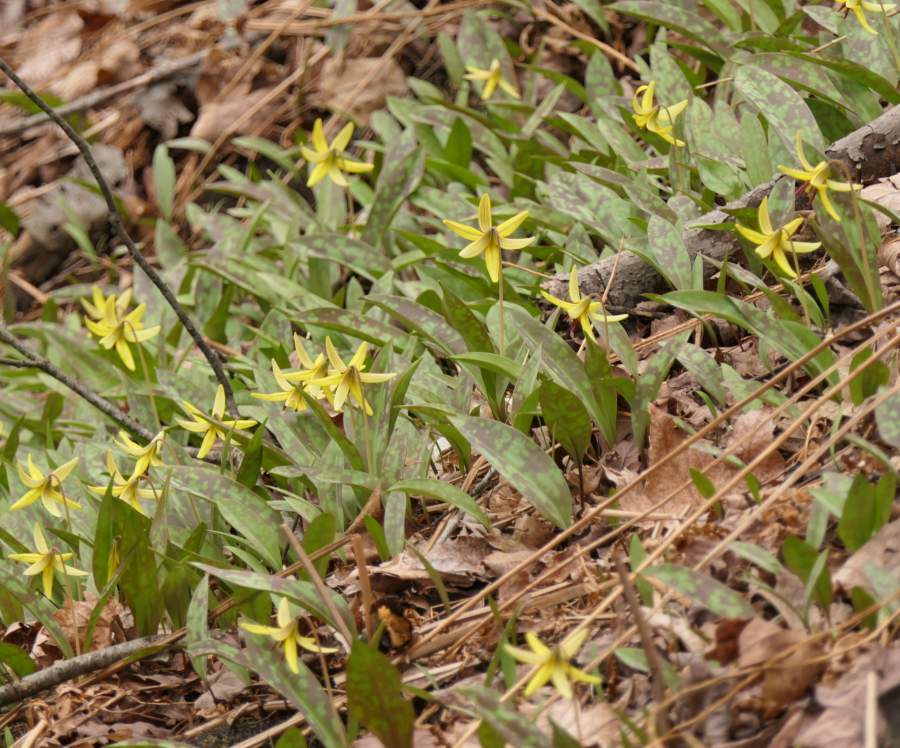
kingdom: Plantae
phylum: Tracheophyta
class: Liliopsida
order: Liliales
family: Liliaceae
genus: Erythronium
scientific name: Erythronium americanum
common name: Yellow adder's-tongue
